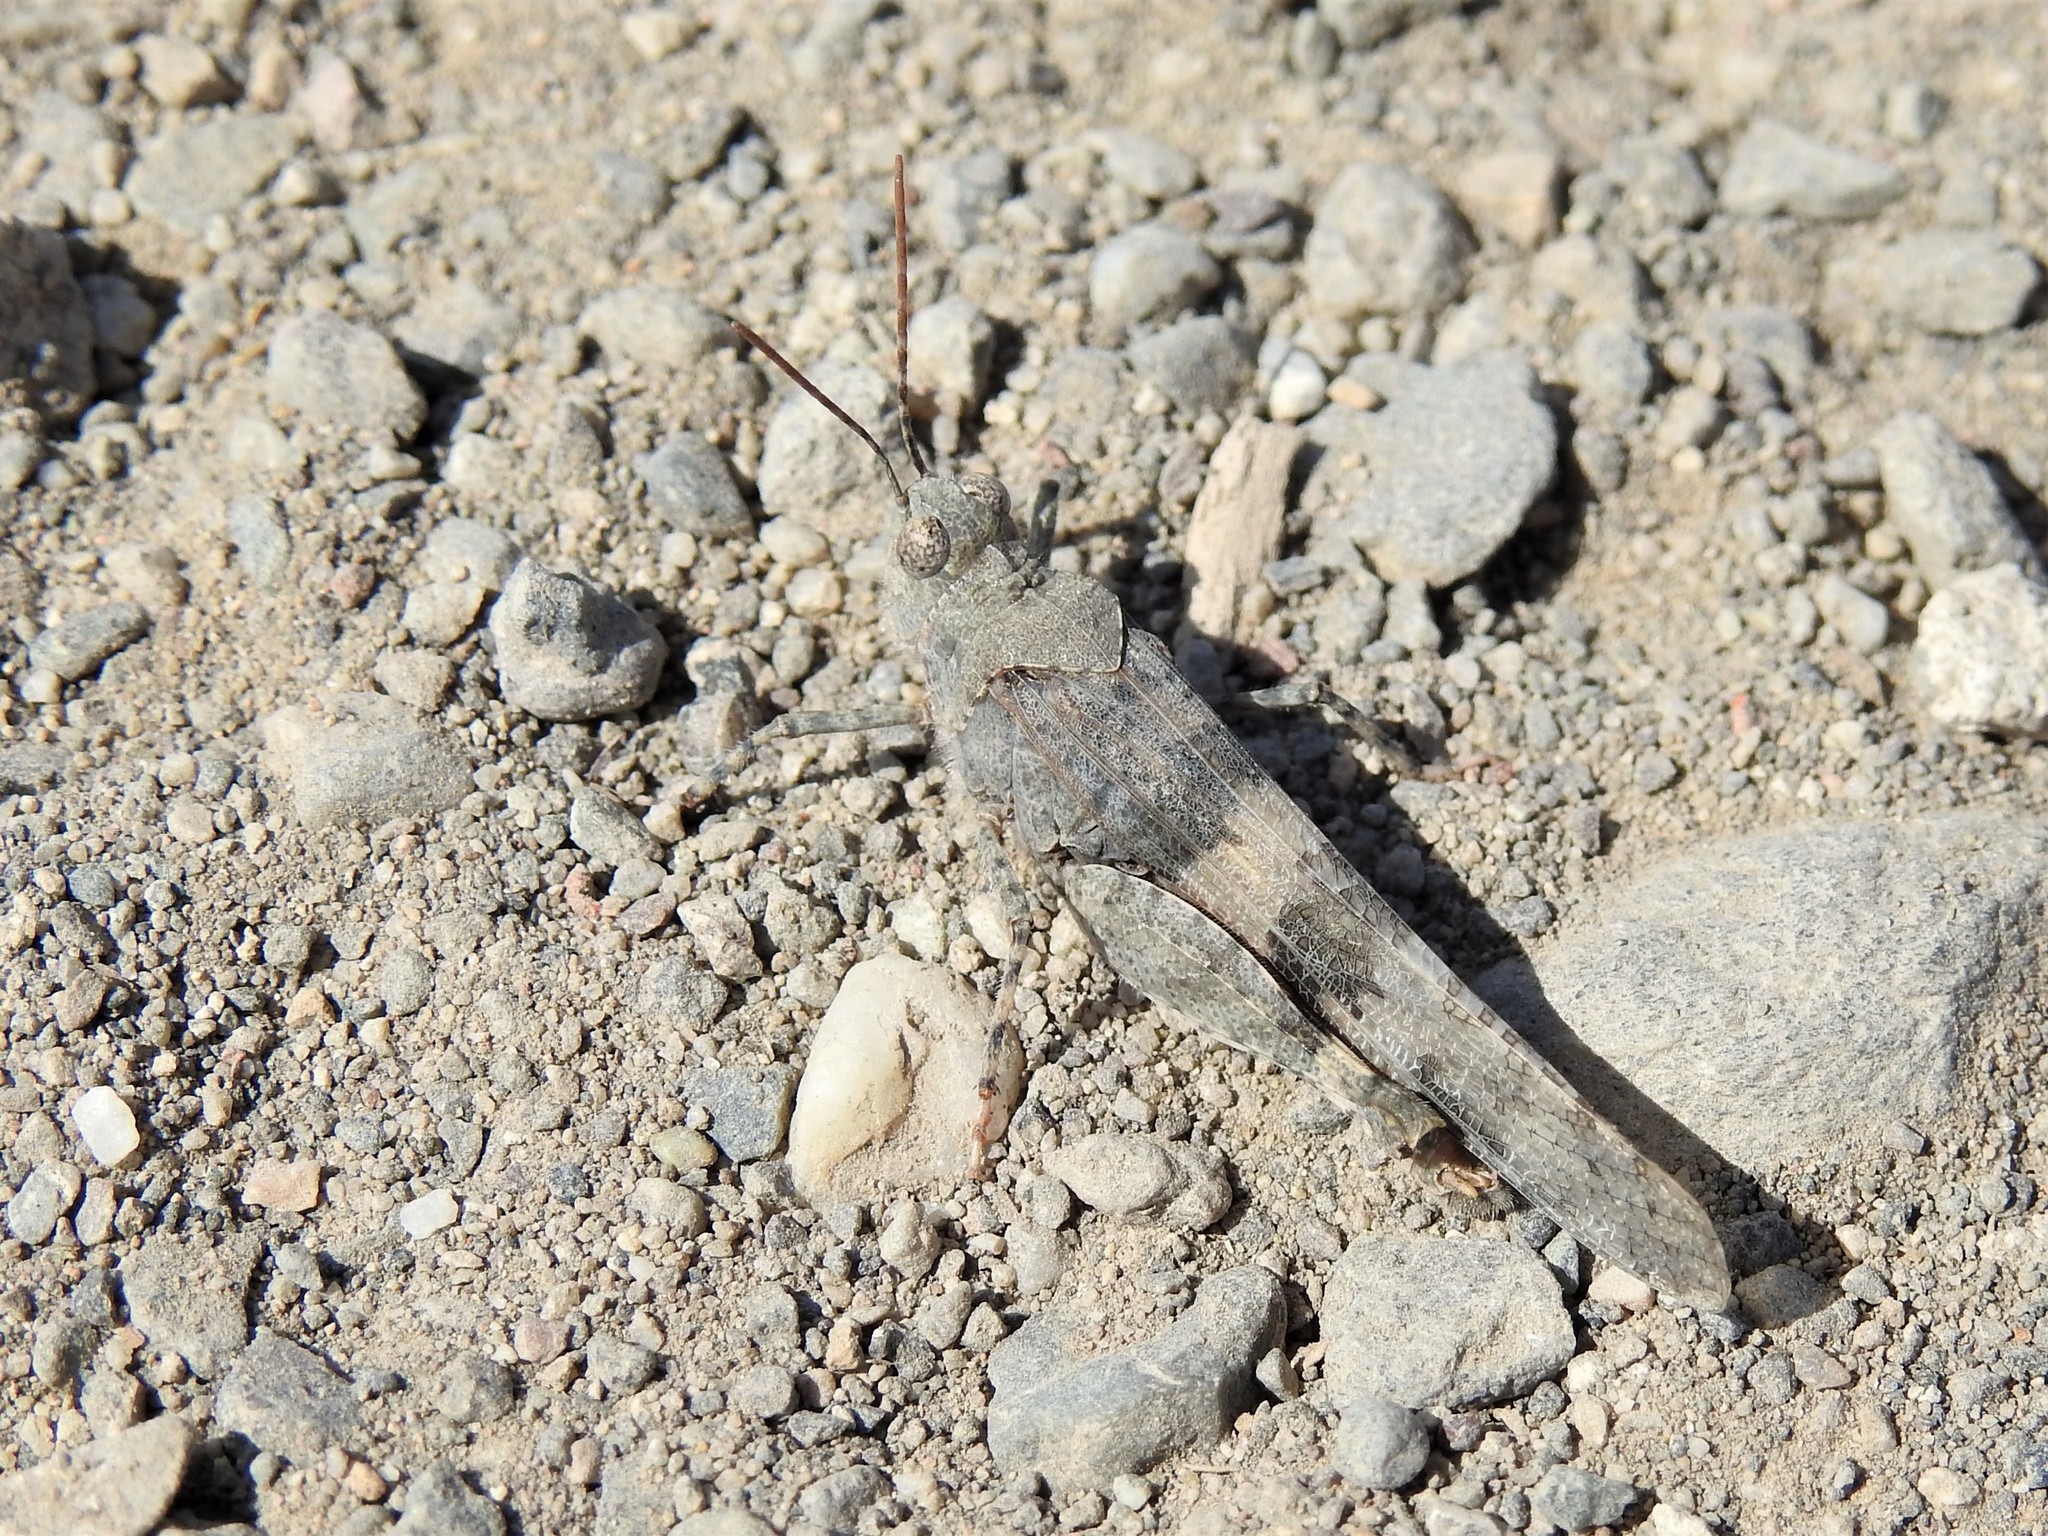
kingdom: Animalia
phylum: Arthropoda
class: Insecta
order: Orthoptera
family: Acrididae
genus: Trimerotropis
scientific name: Trimerotropis pallidipennis
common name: Pallid-winged grasshopper
